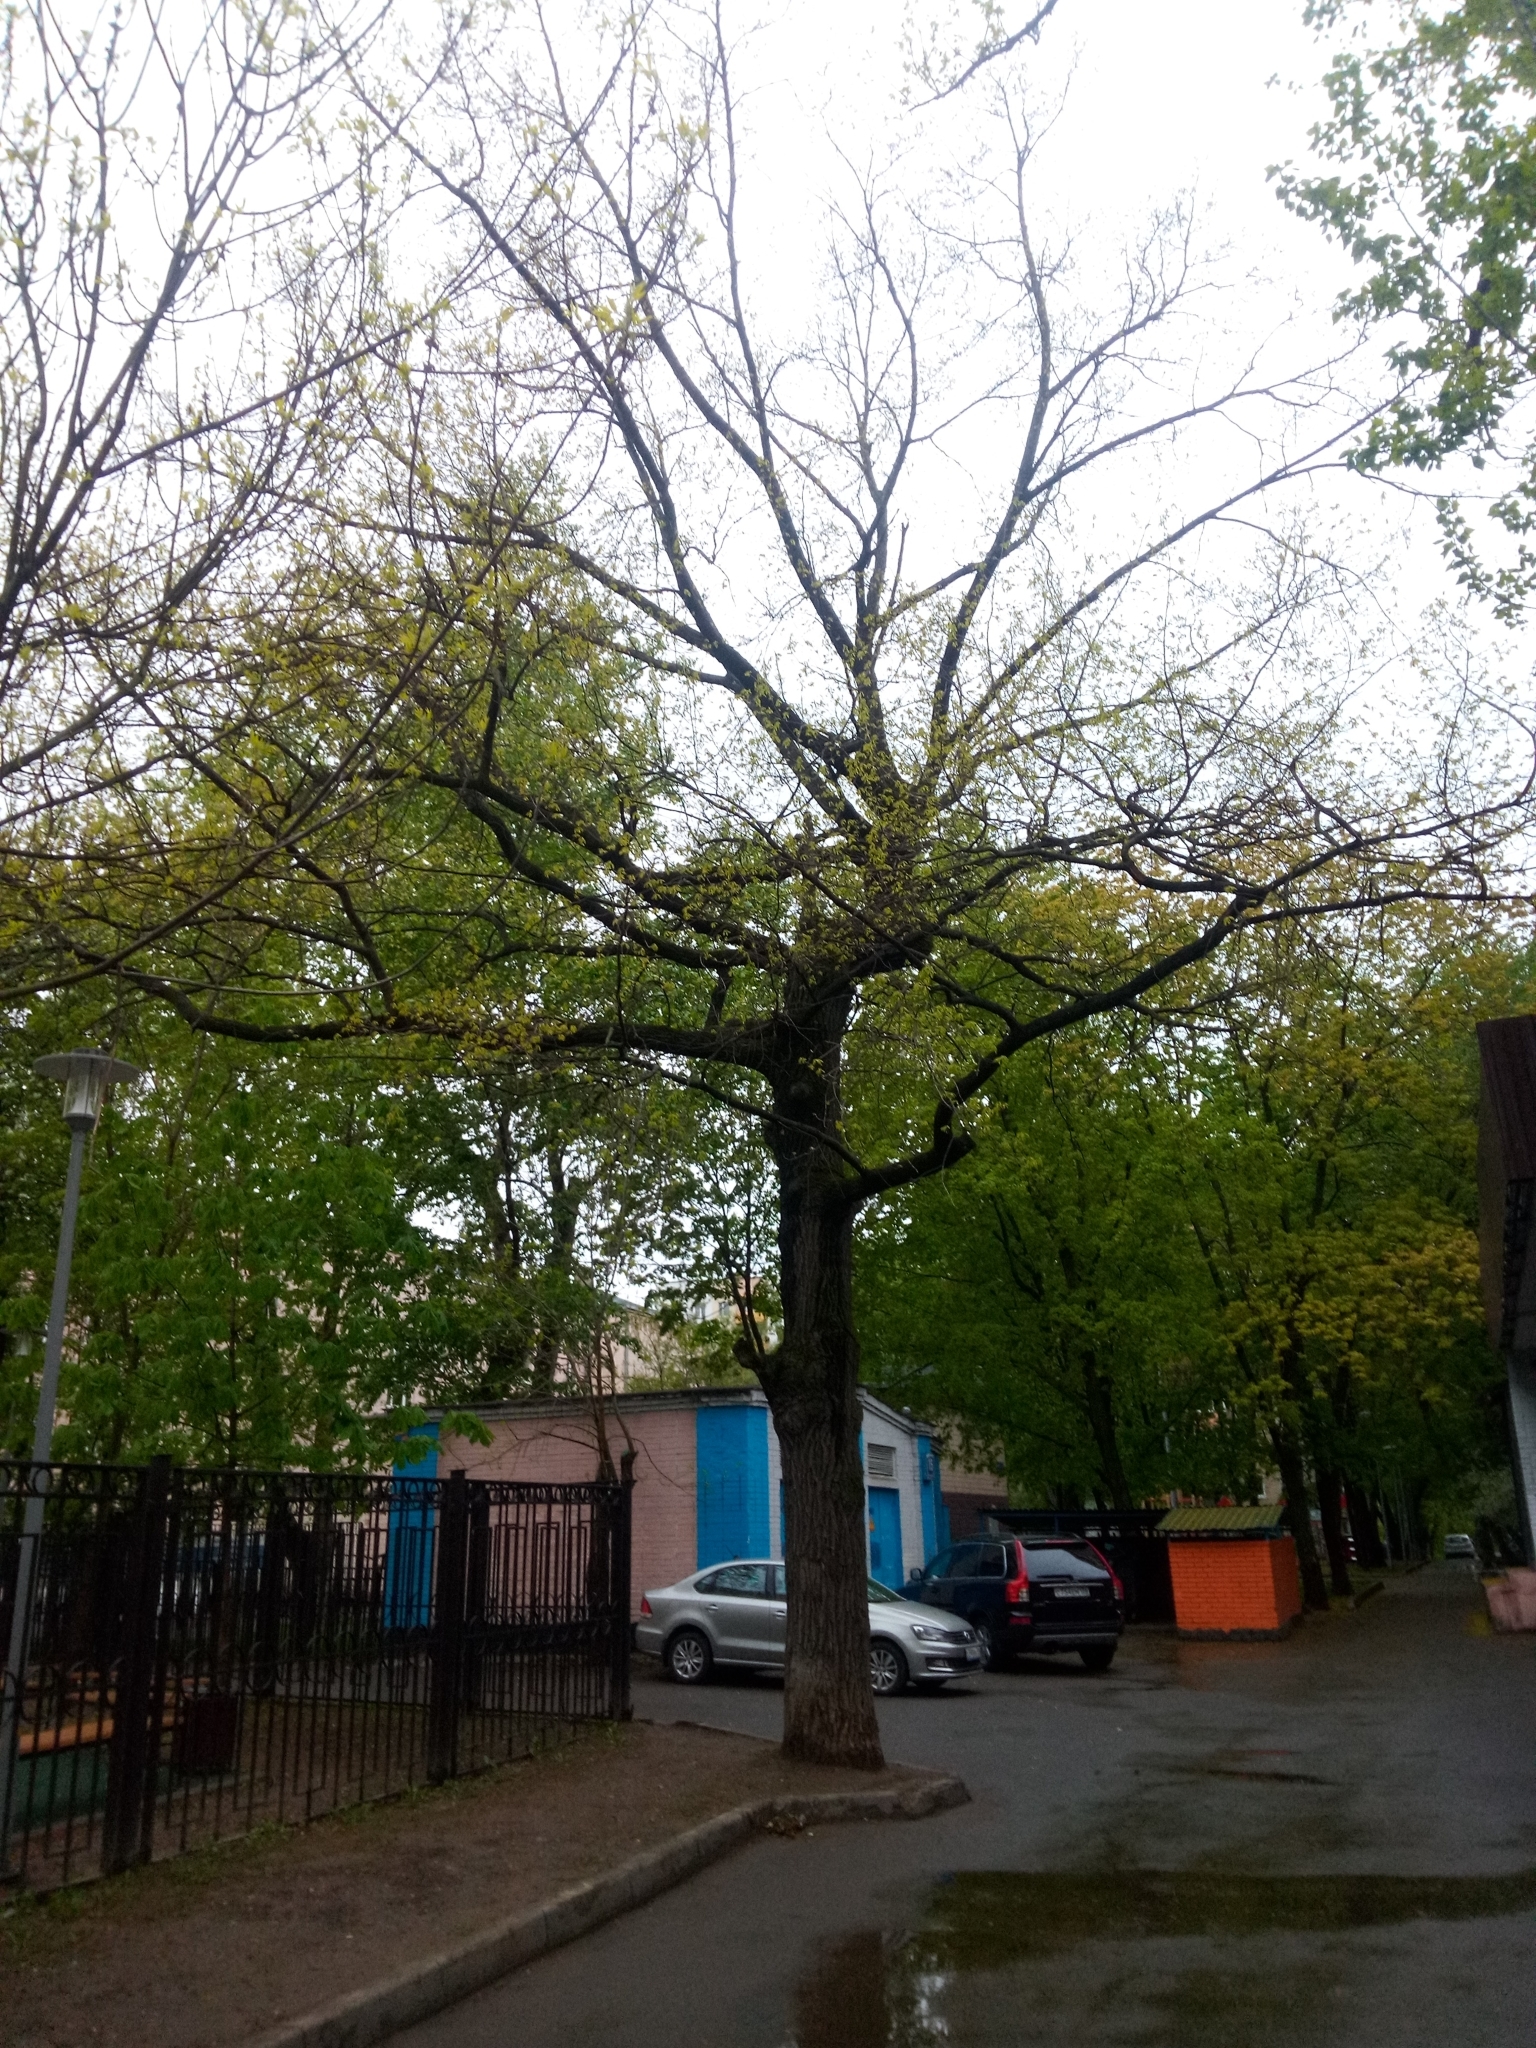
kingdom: Plantae
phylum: Tracheophyta
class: Magnoliopsida
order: Fagales
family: Fagaceae
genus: Quercus
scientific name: Quercus robur
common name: Pedunculate oak
